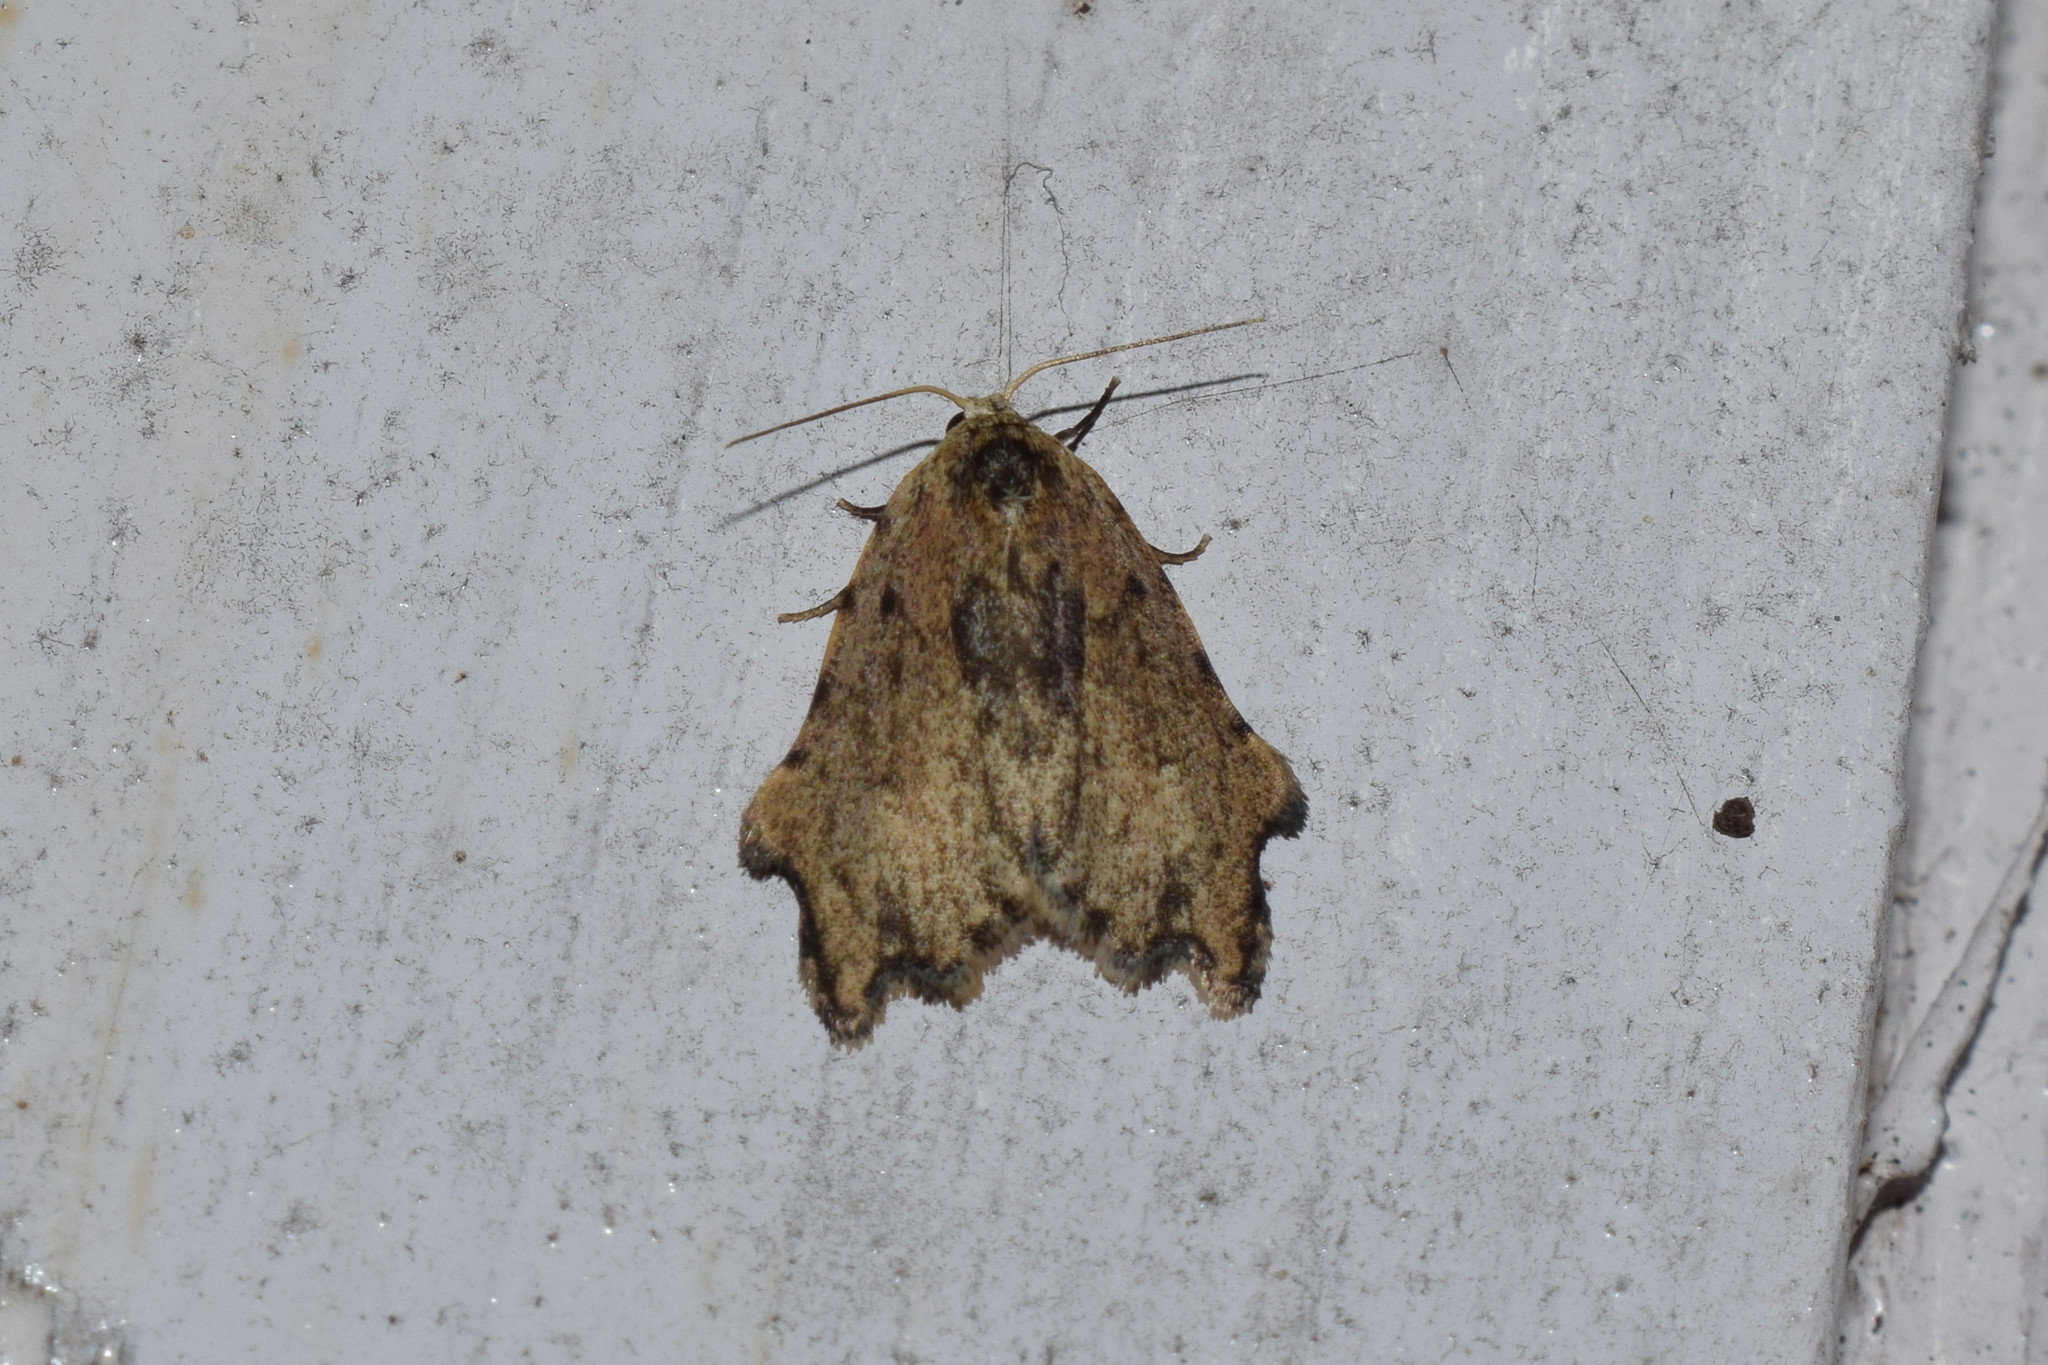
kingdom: Animalia
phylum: Arthropoda
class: Insecta
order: Lepidoptera
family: Erebidae
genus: Oxacme
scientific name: Oxacme marginata
